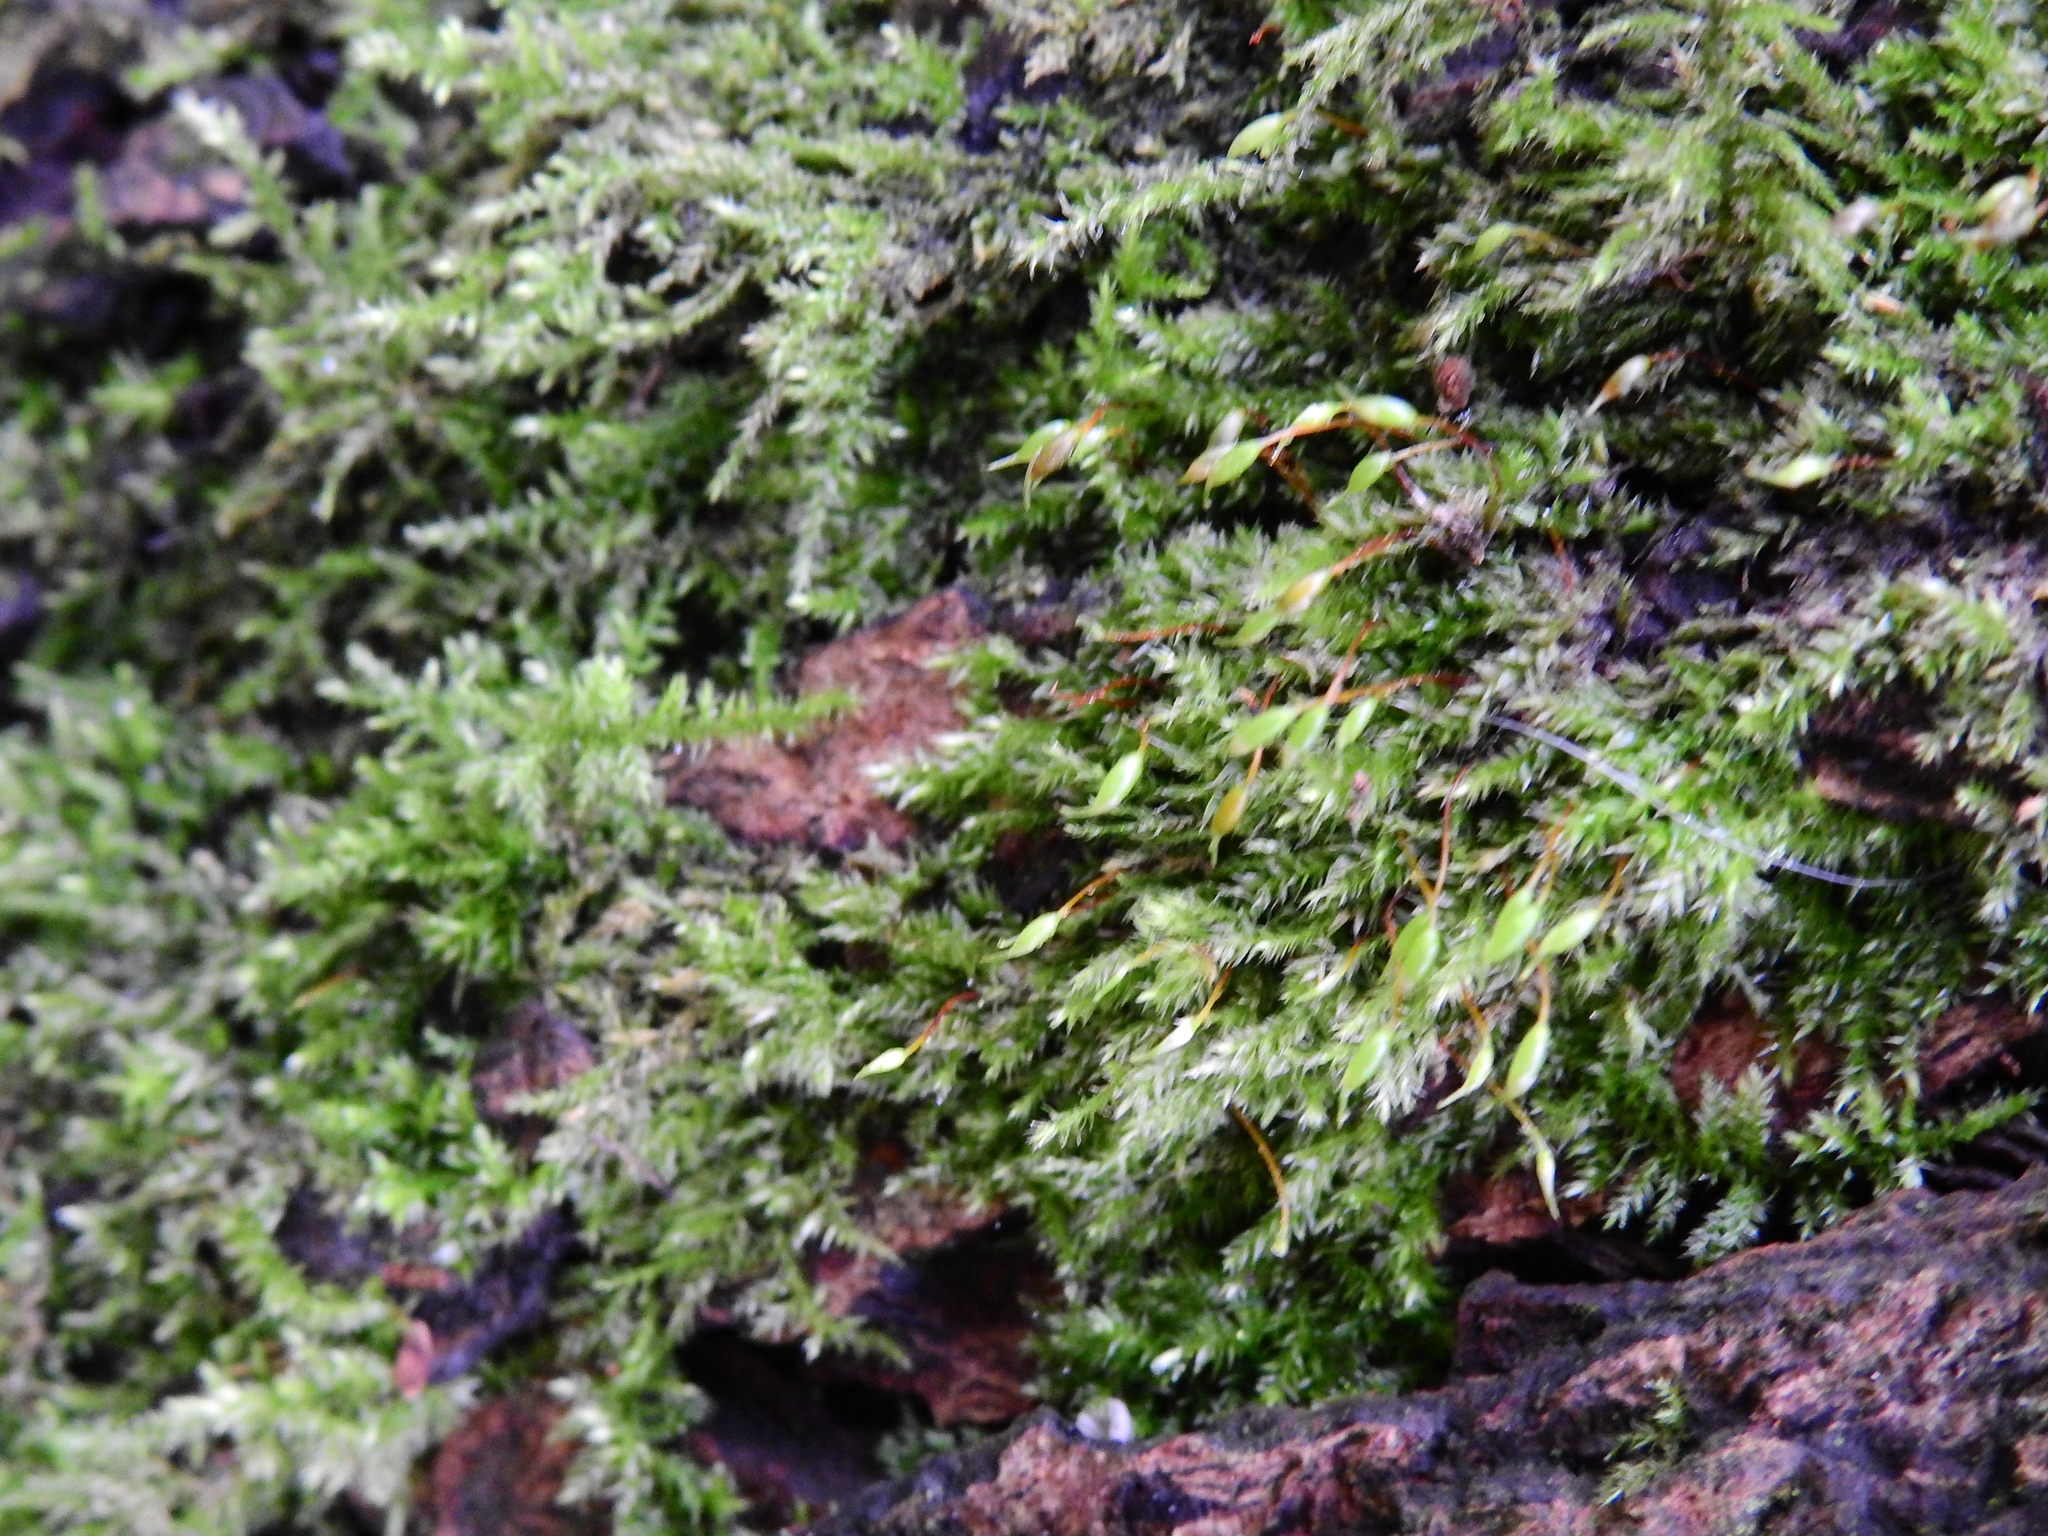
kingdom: Plantae
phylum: Bryophyta
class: Bryopsida
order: Hypnales
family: Brachytheciaceae
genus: Rhynchostegium
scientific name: Rhynchostegium confertum
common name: Clustered feather-moss
